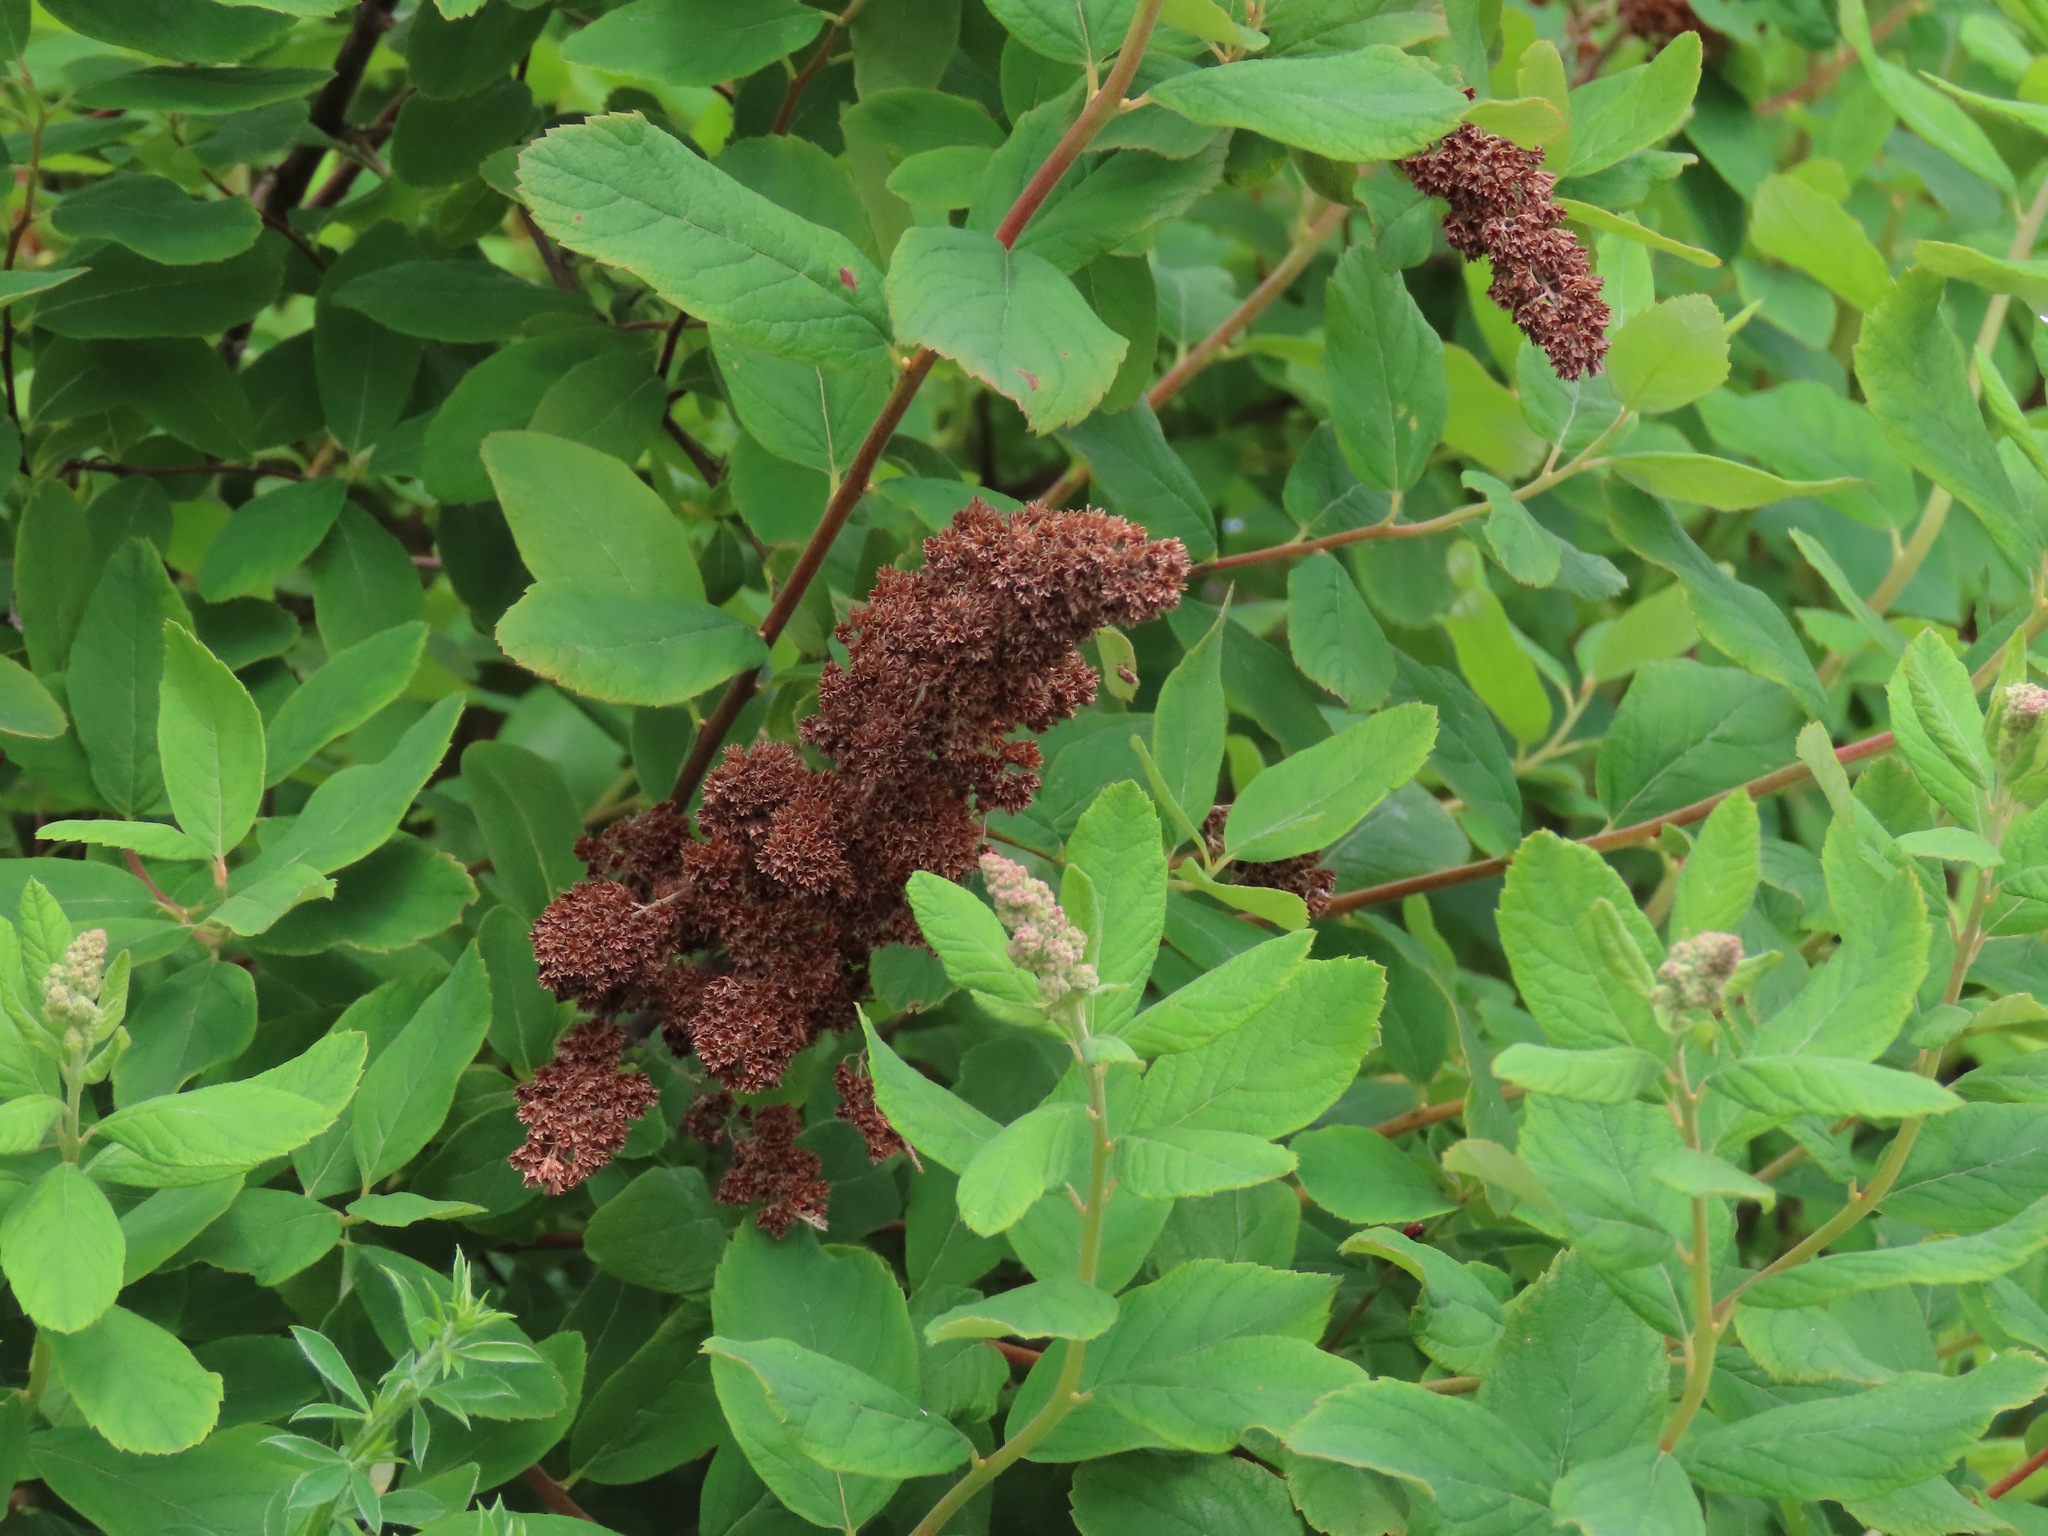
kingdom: Plantae
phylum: Tracheophyta
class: Magnoliopsida
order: Rosales
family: Rosaceae
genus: Spiraea
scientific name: Spiraea douglasii
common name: Steeplebush
